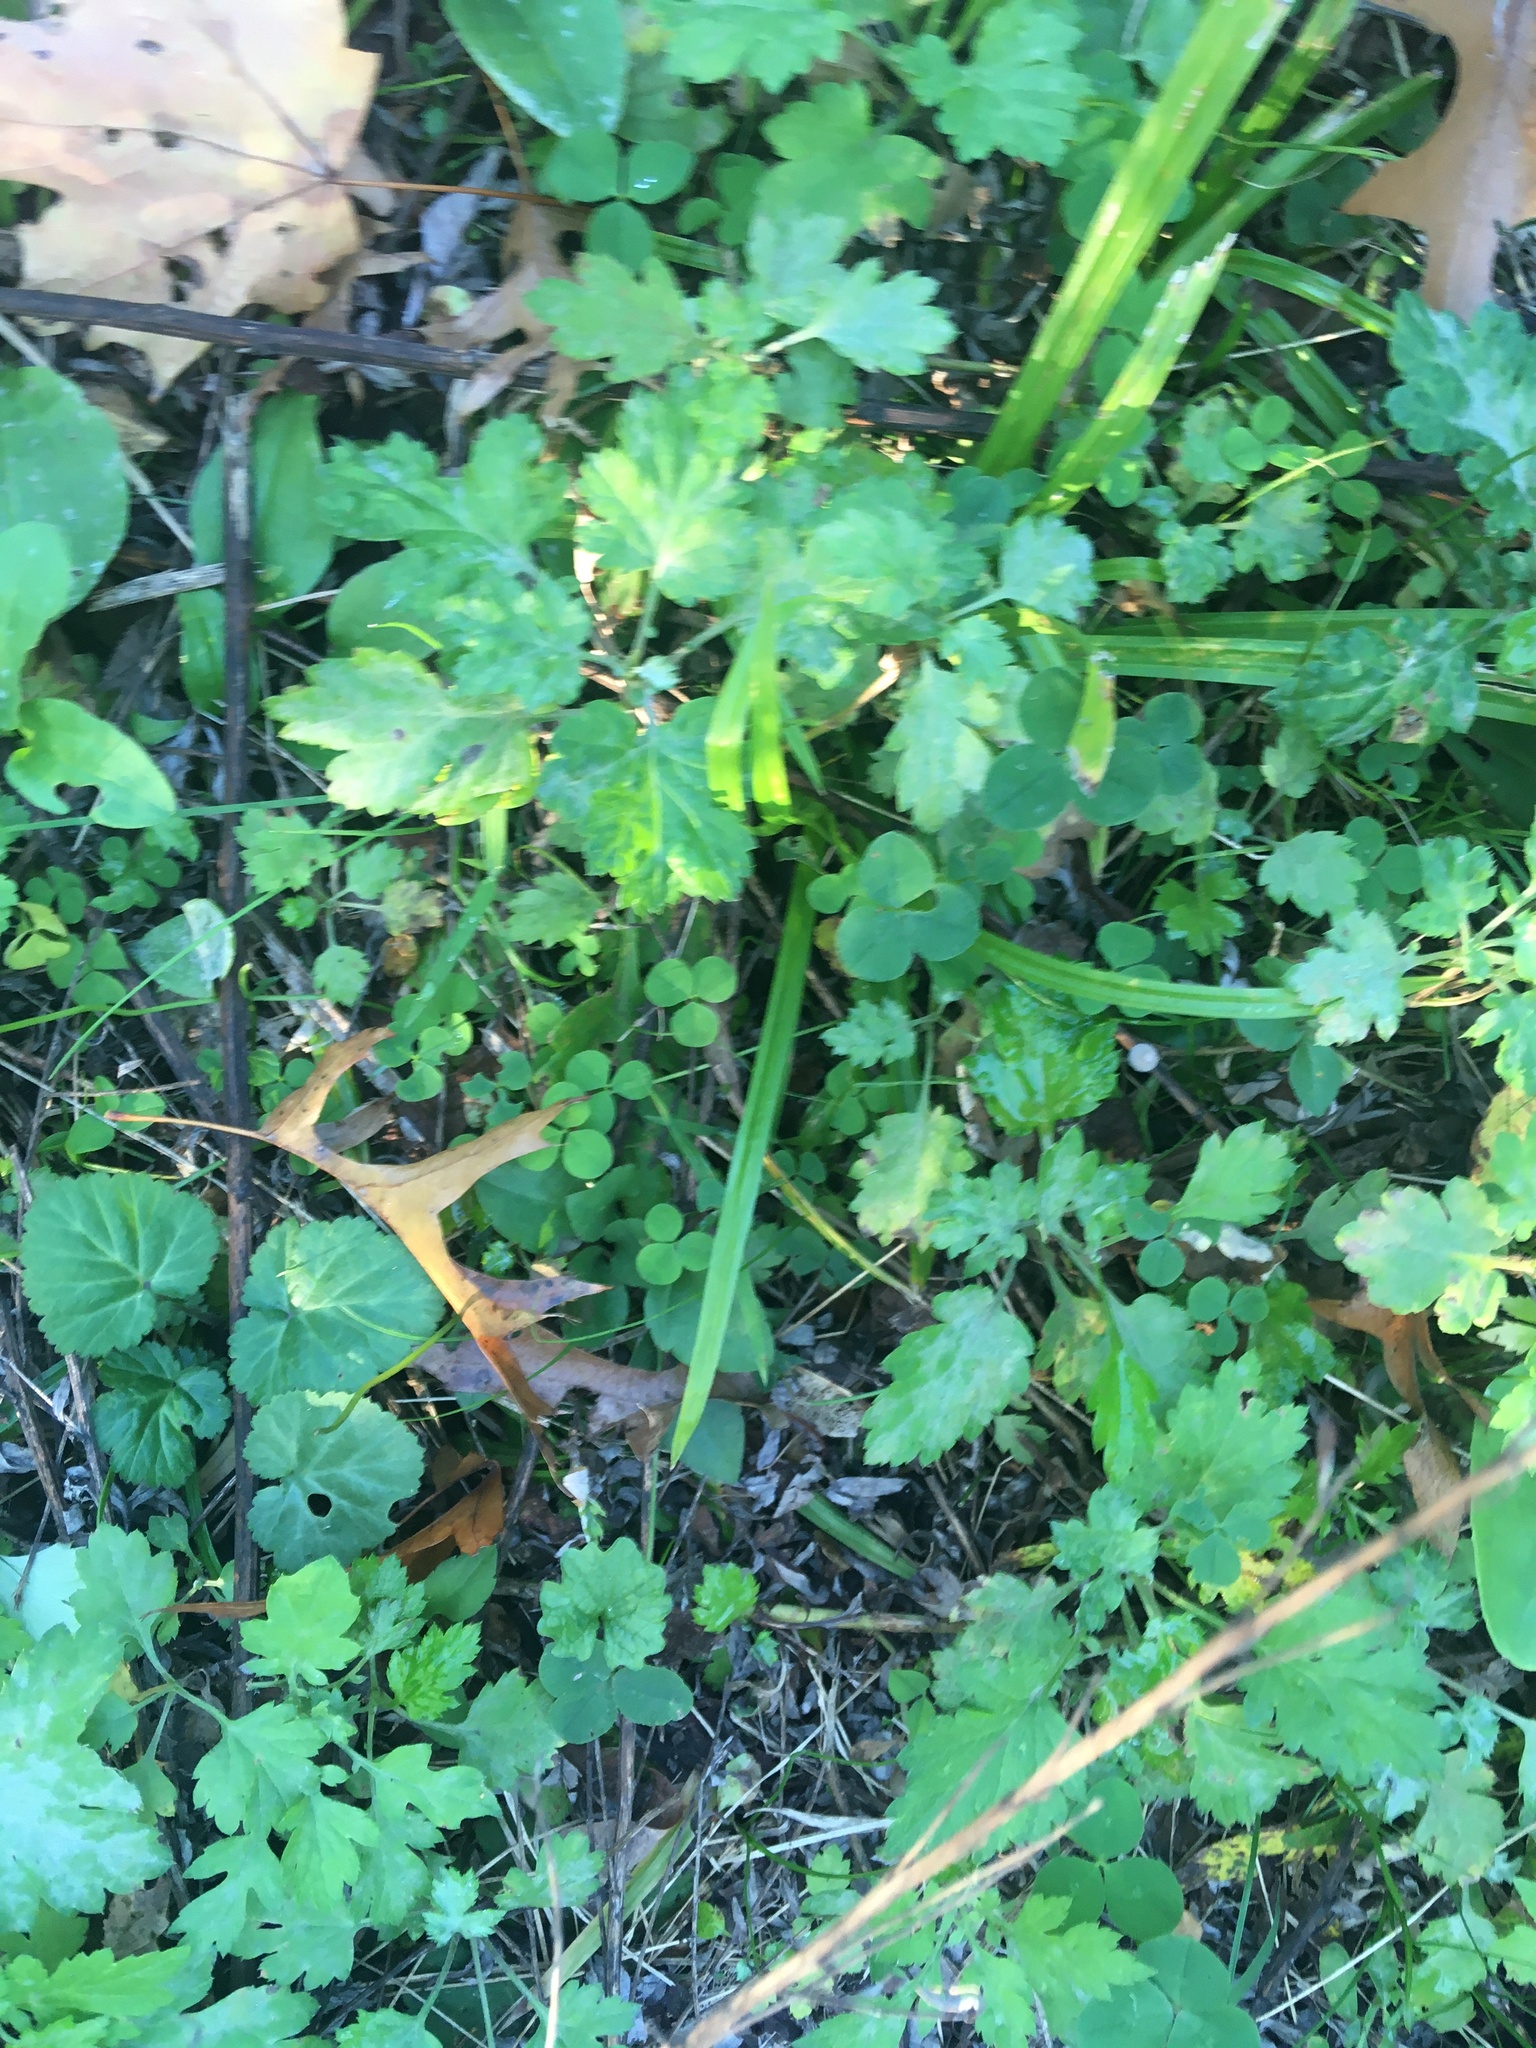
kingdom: Plantae
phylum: Tracheophyta
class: Magnoliopsida
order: Asterales
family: Asteraceae
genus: Artemisia
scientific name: Artemisia vulgaris
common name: Mugwort
